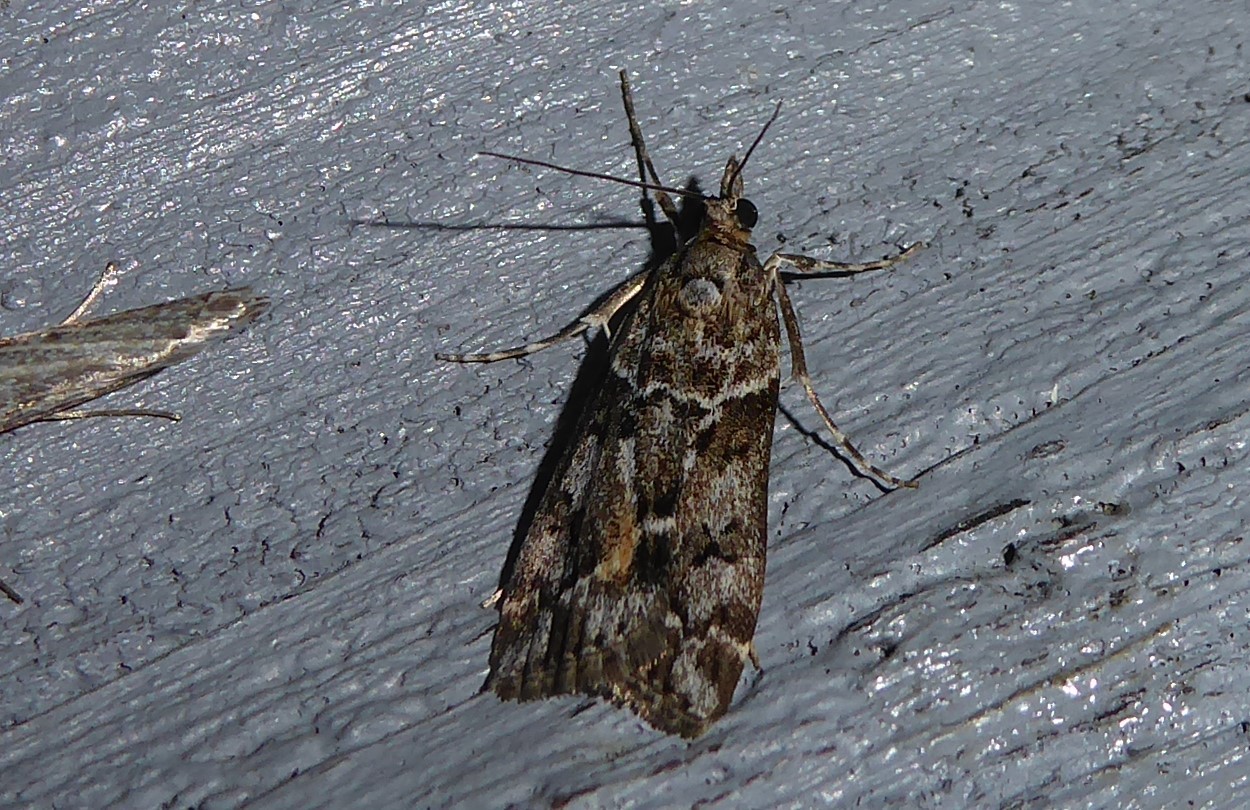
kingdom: Animalia
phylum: Arthropoda
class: Insecta
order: Lepidoptera
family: Crambidae
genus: Eudonia
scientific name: Eudonia submarginalis
